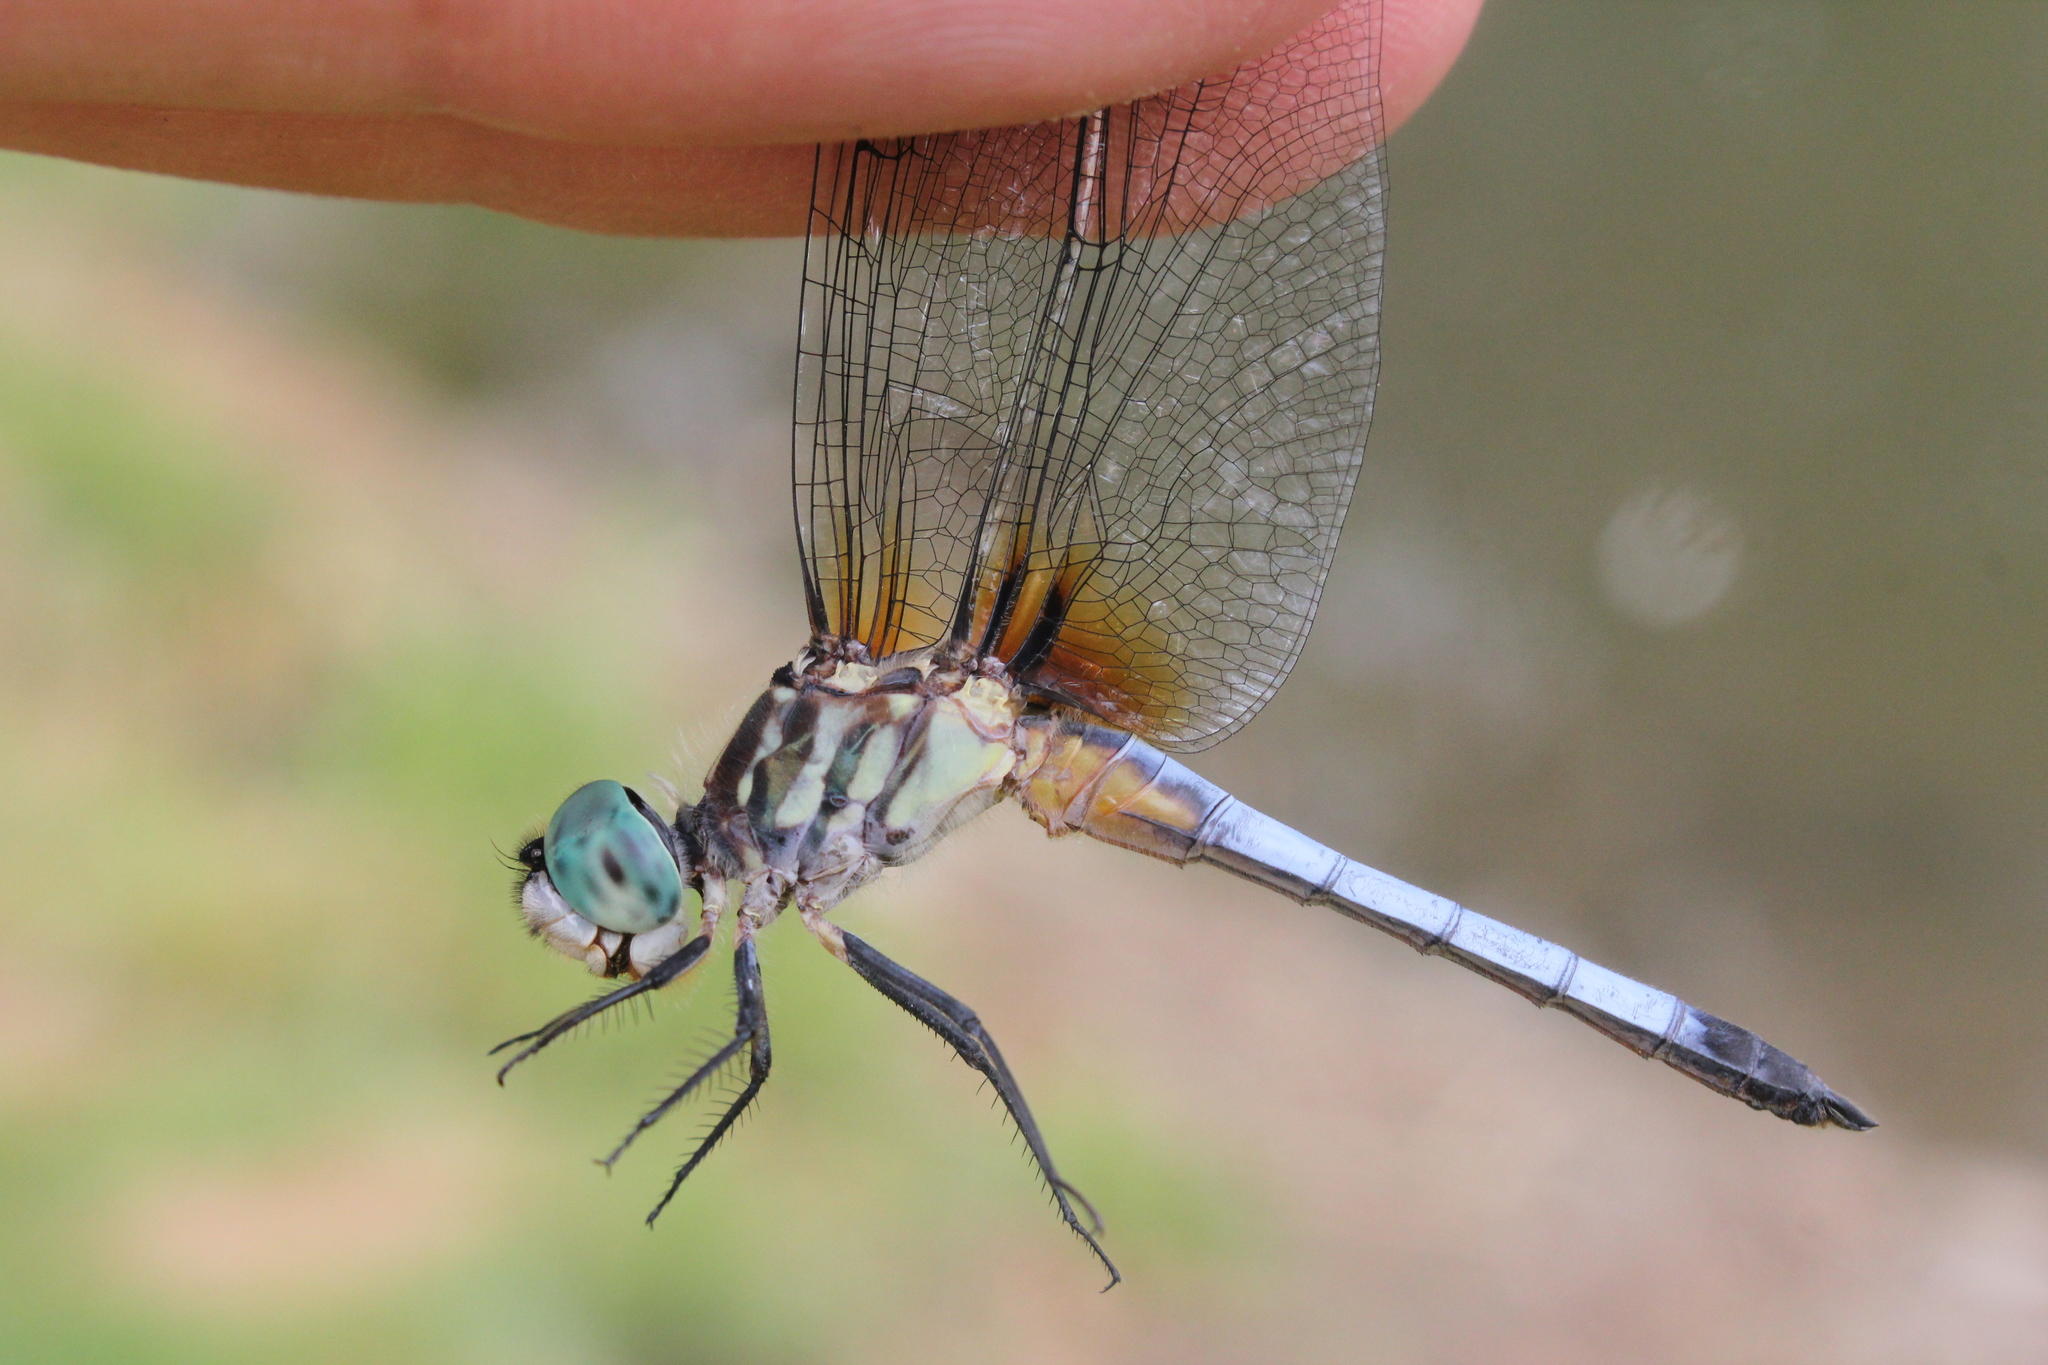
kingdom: Animalia
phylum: Arthropoda
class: Insecta
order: Odonata
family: Libellulidae
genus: Pachydiplax
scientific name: Pachydiplax longipennis
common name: Blue dasher
